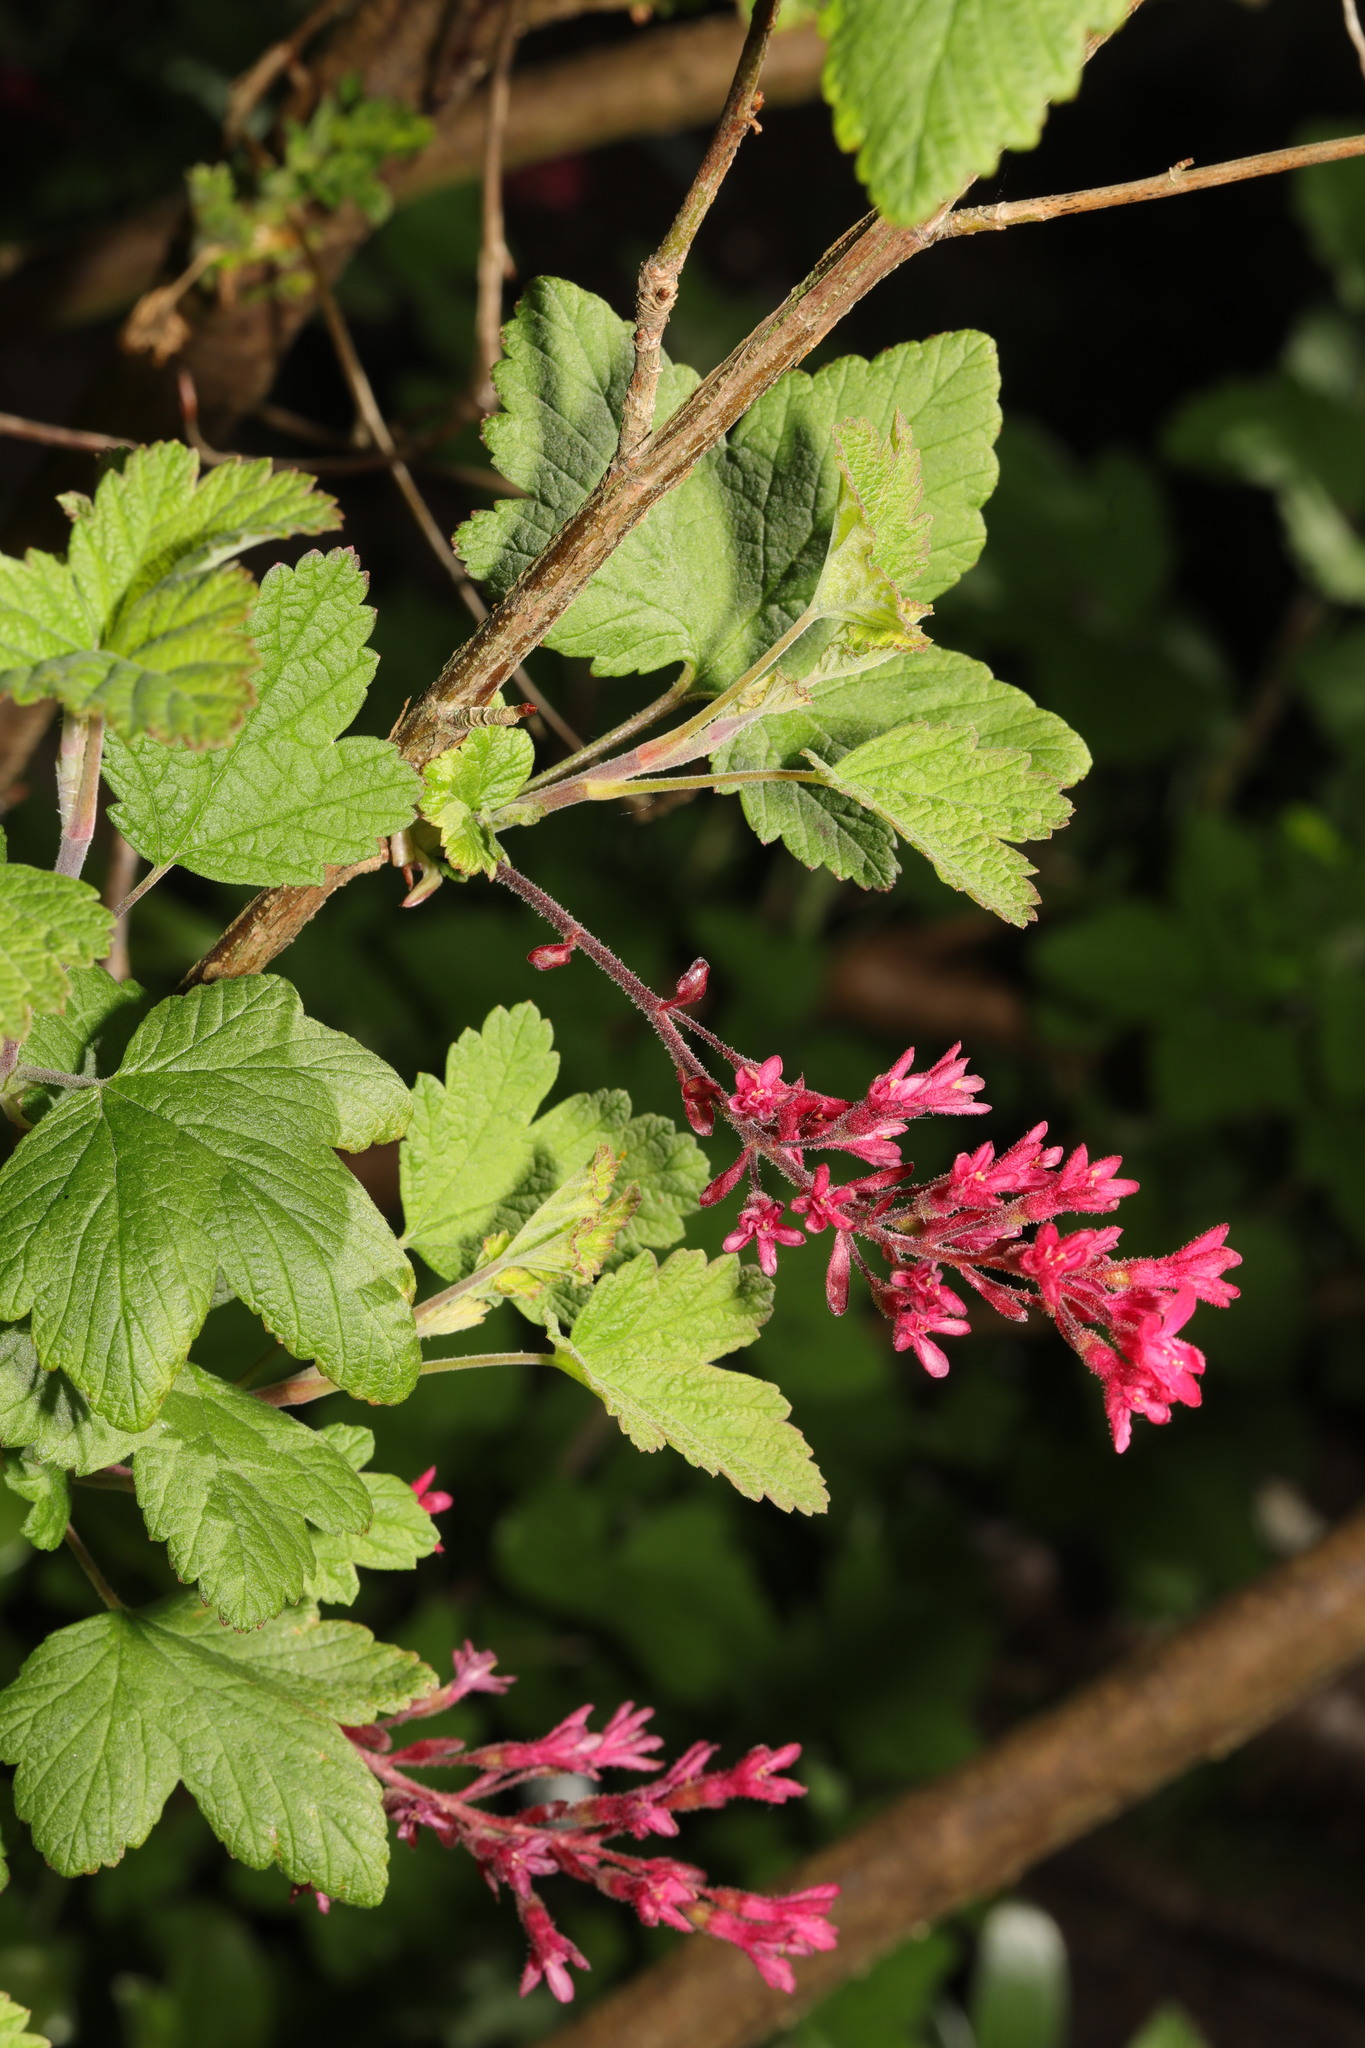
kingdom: Plantae
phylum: Tracheophyta
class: Magnoliopsida
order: Saxifragales
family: Grossulariaceae
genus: Ribes
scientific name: Ribes sanguineum
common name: Flowering currant
